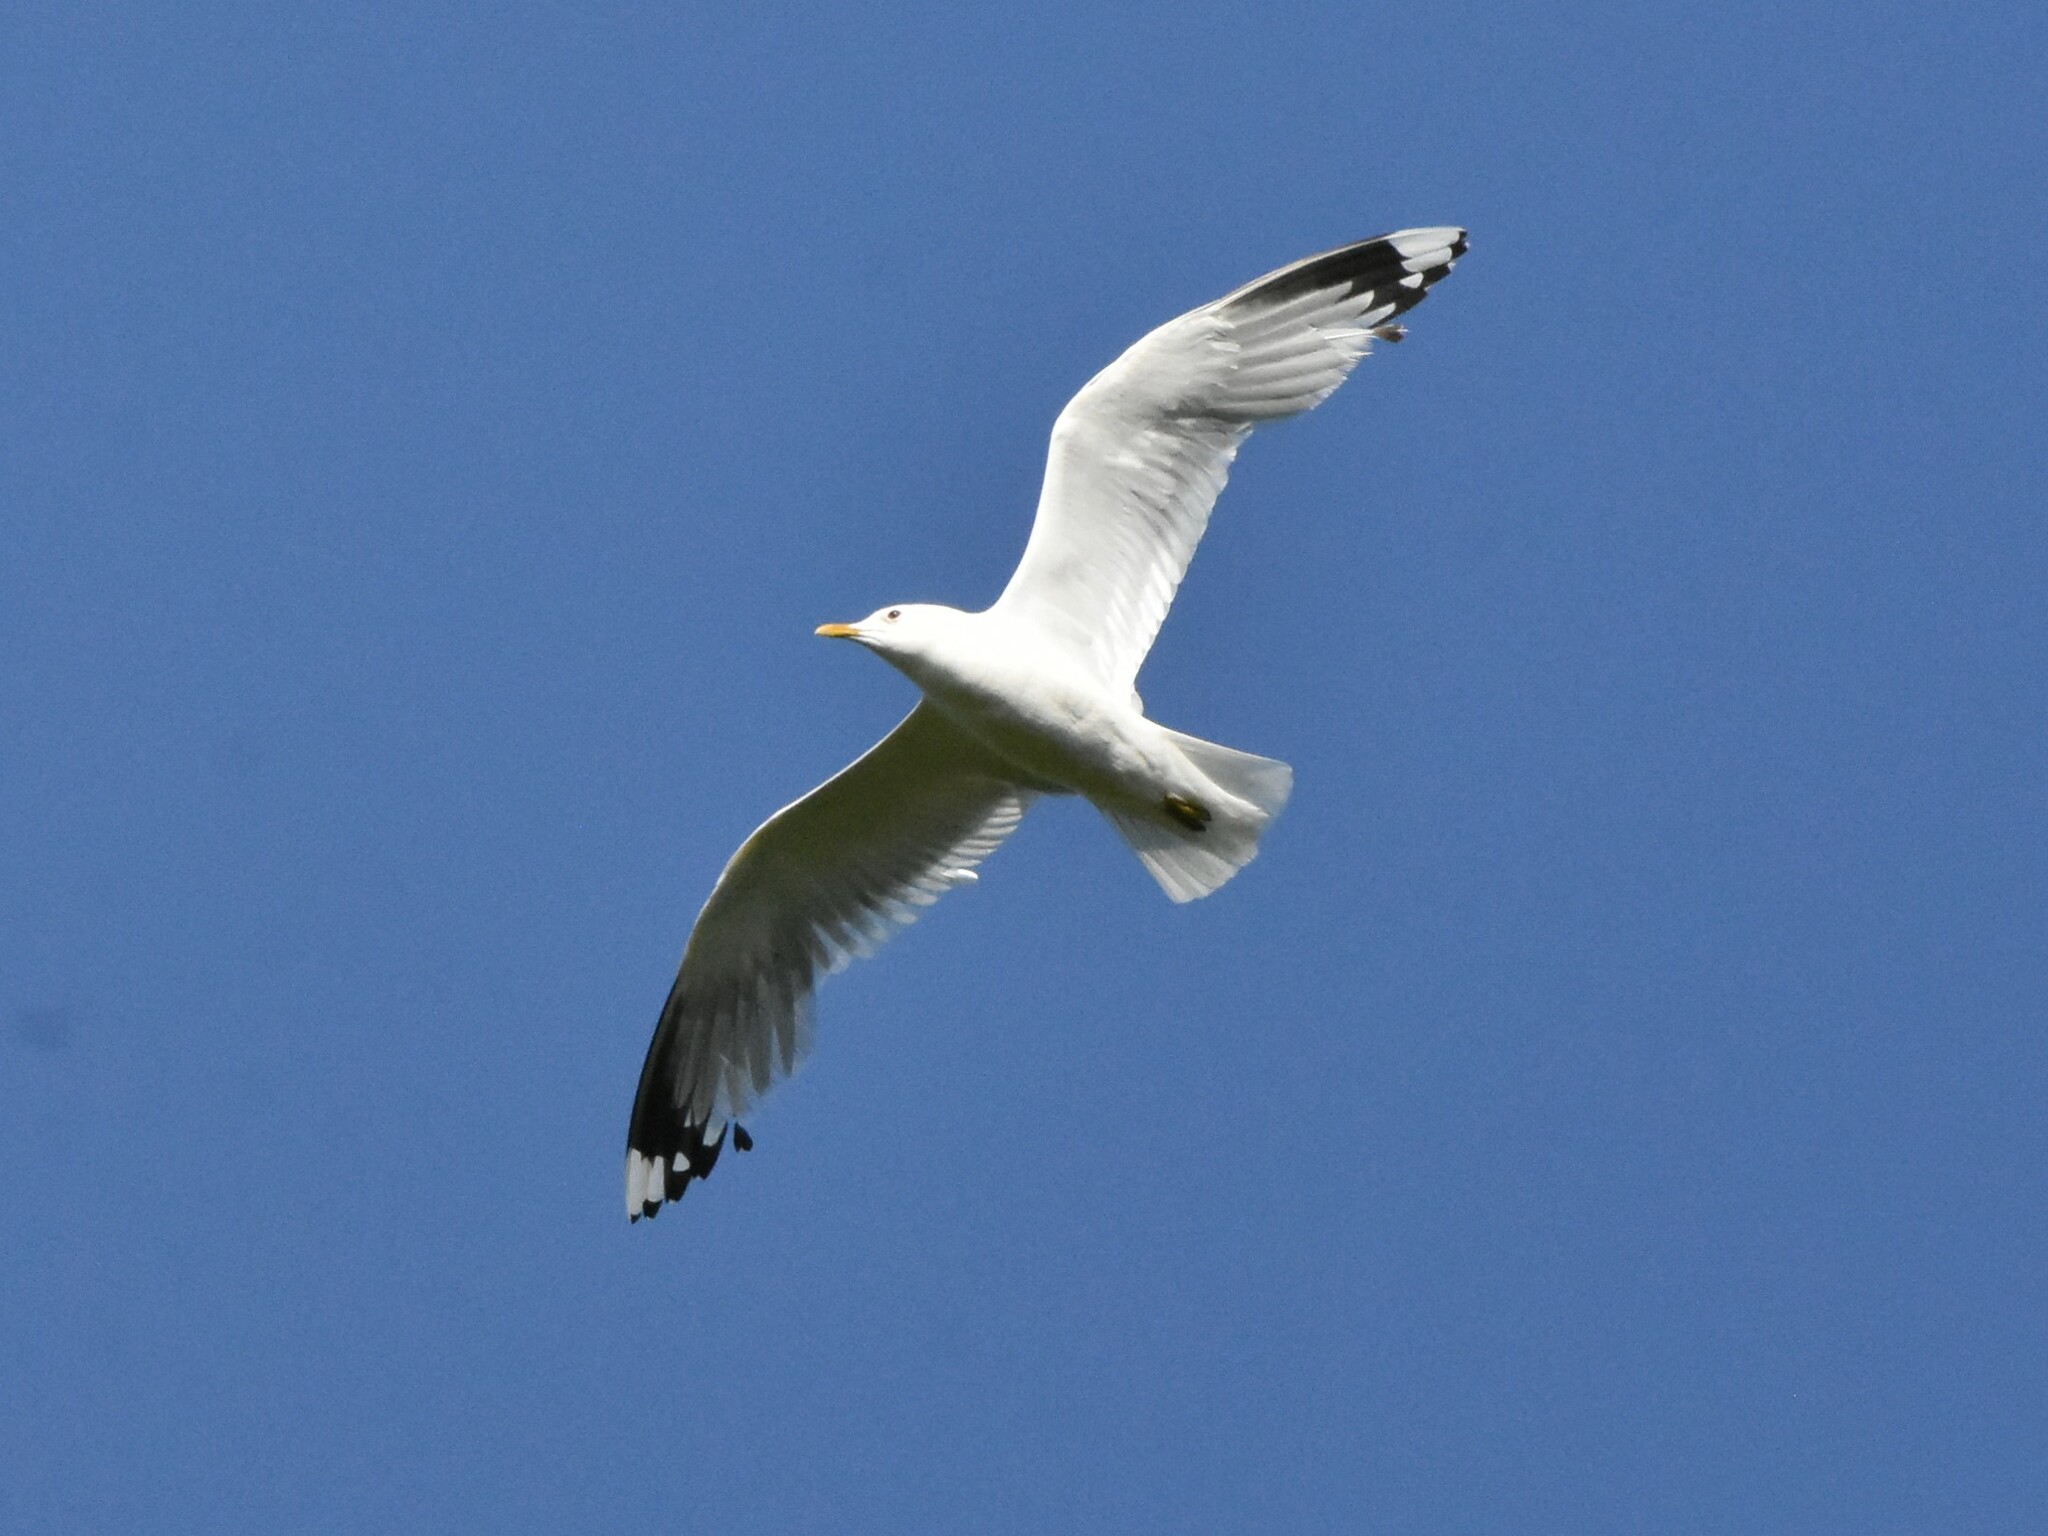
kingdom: Animalia
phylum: Chordata
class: Aves
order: Charadriiformes
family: Laridae
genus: Larus
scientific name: Larus canus
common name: Mew gull
